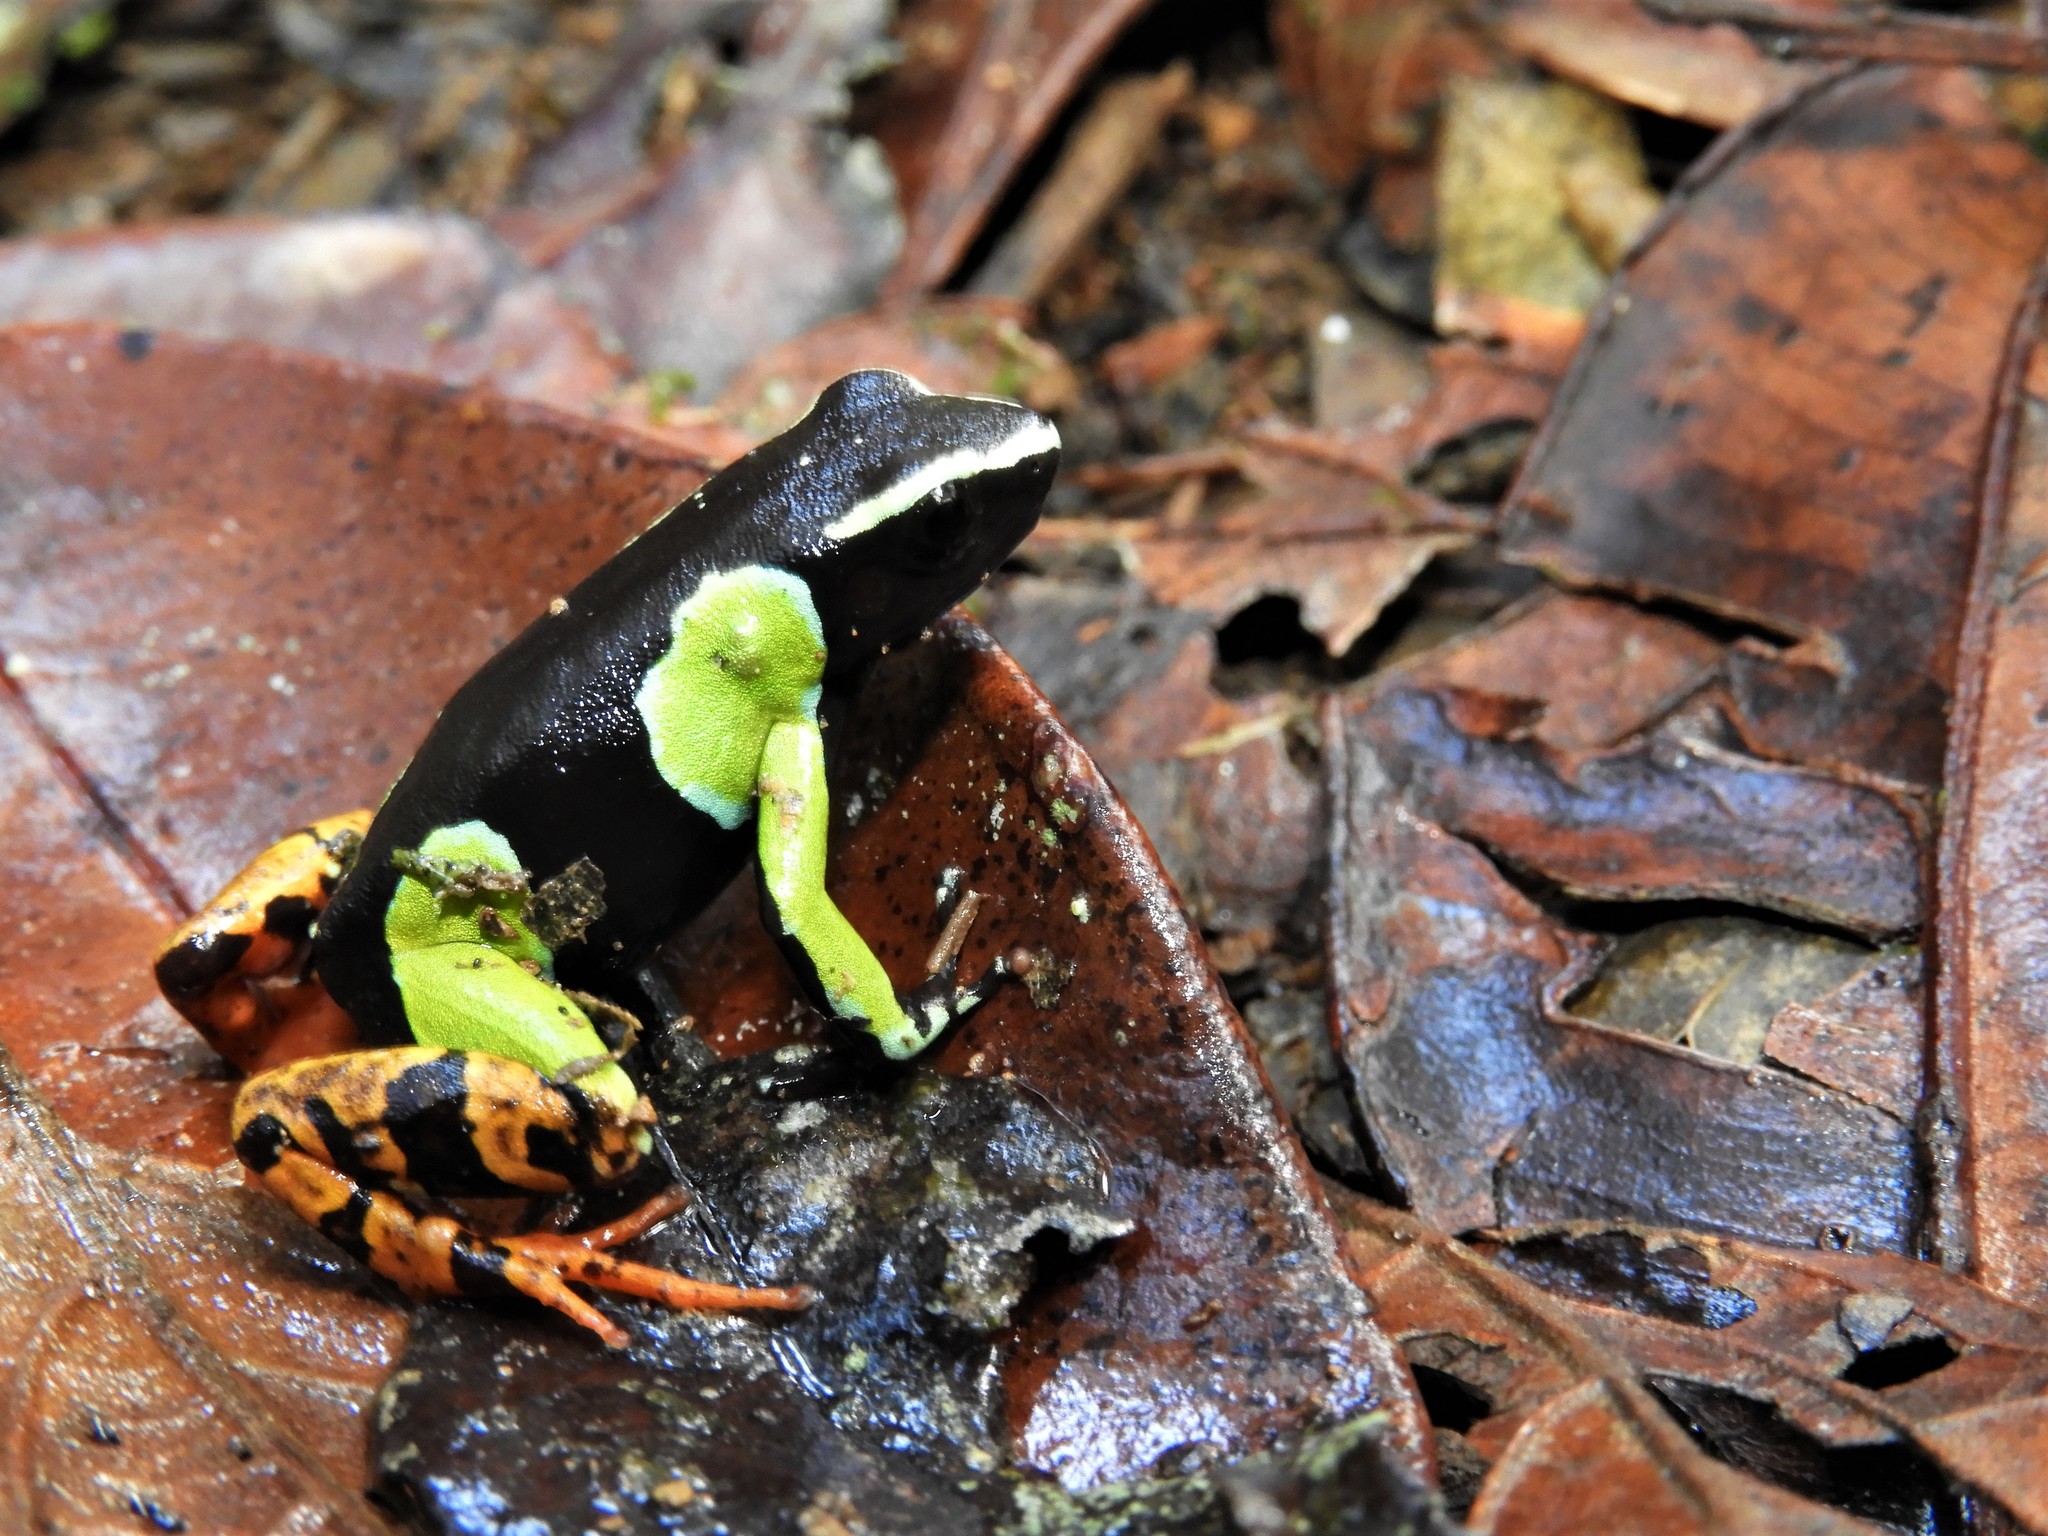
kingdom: Animalia
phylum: Chordata
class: Amphibia
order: Anura
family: Mantellidae
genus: Mantella
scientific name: Mantella baroni
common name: Baron's mantella
